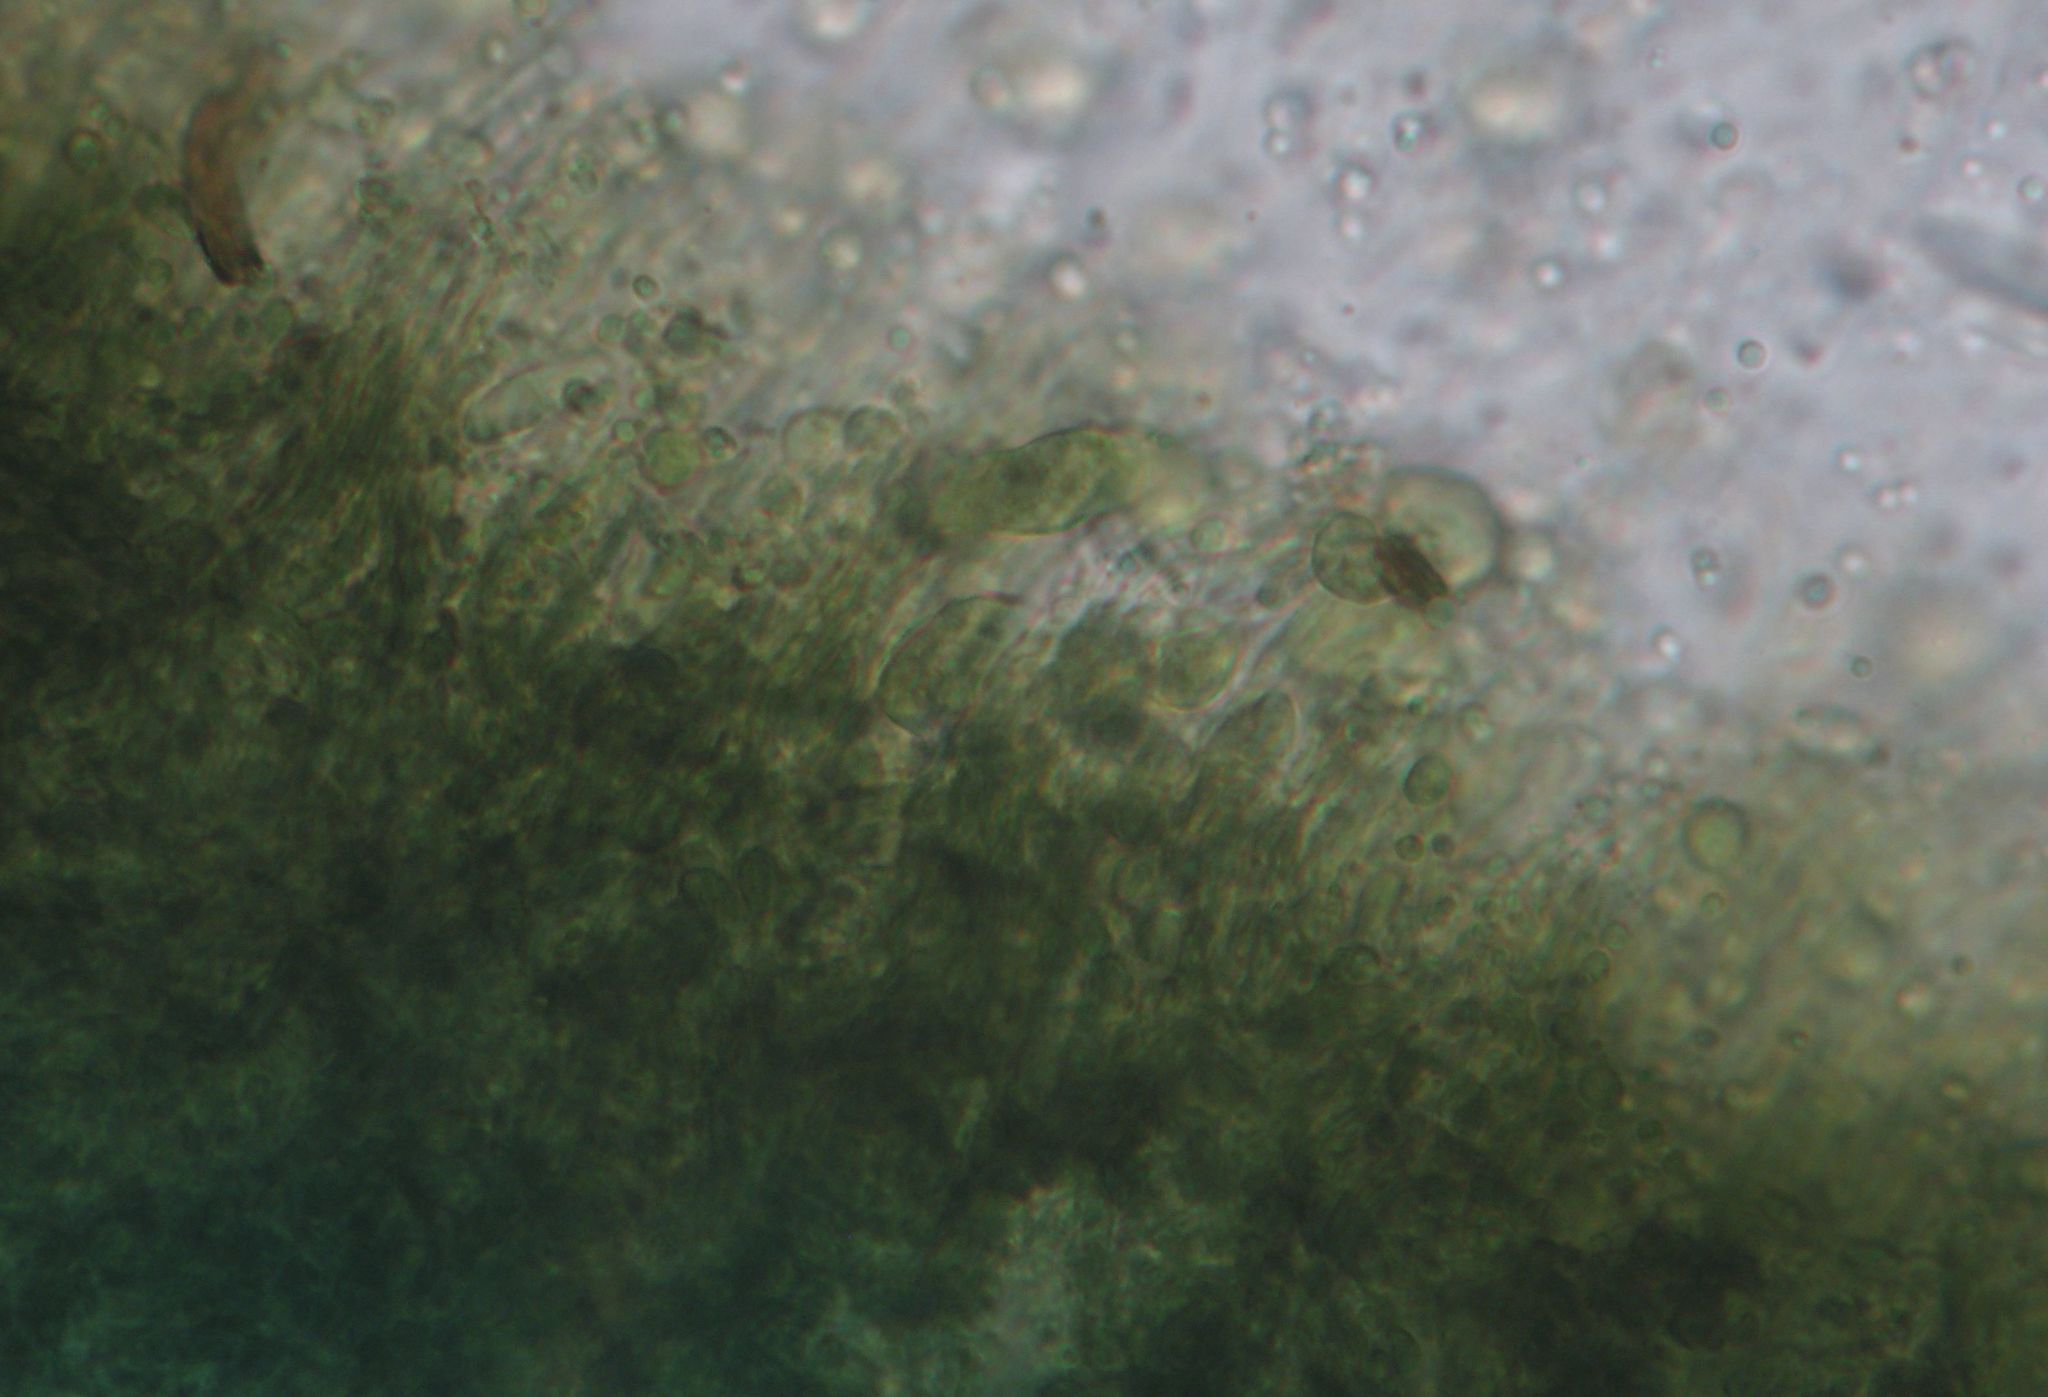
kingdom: Fungi
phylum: Ascomycota
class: Leotiomycetes
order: Helotiales
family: Chlorociboriaceae
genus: Chlorociboria
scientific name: Chlorociboria
